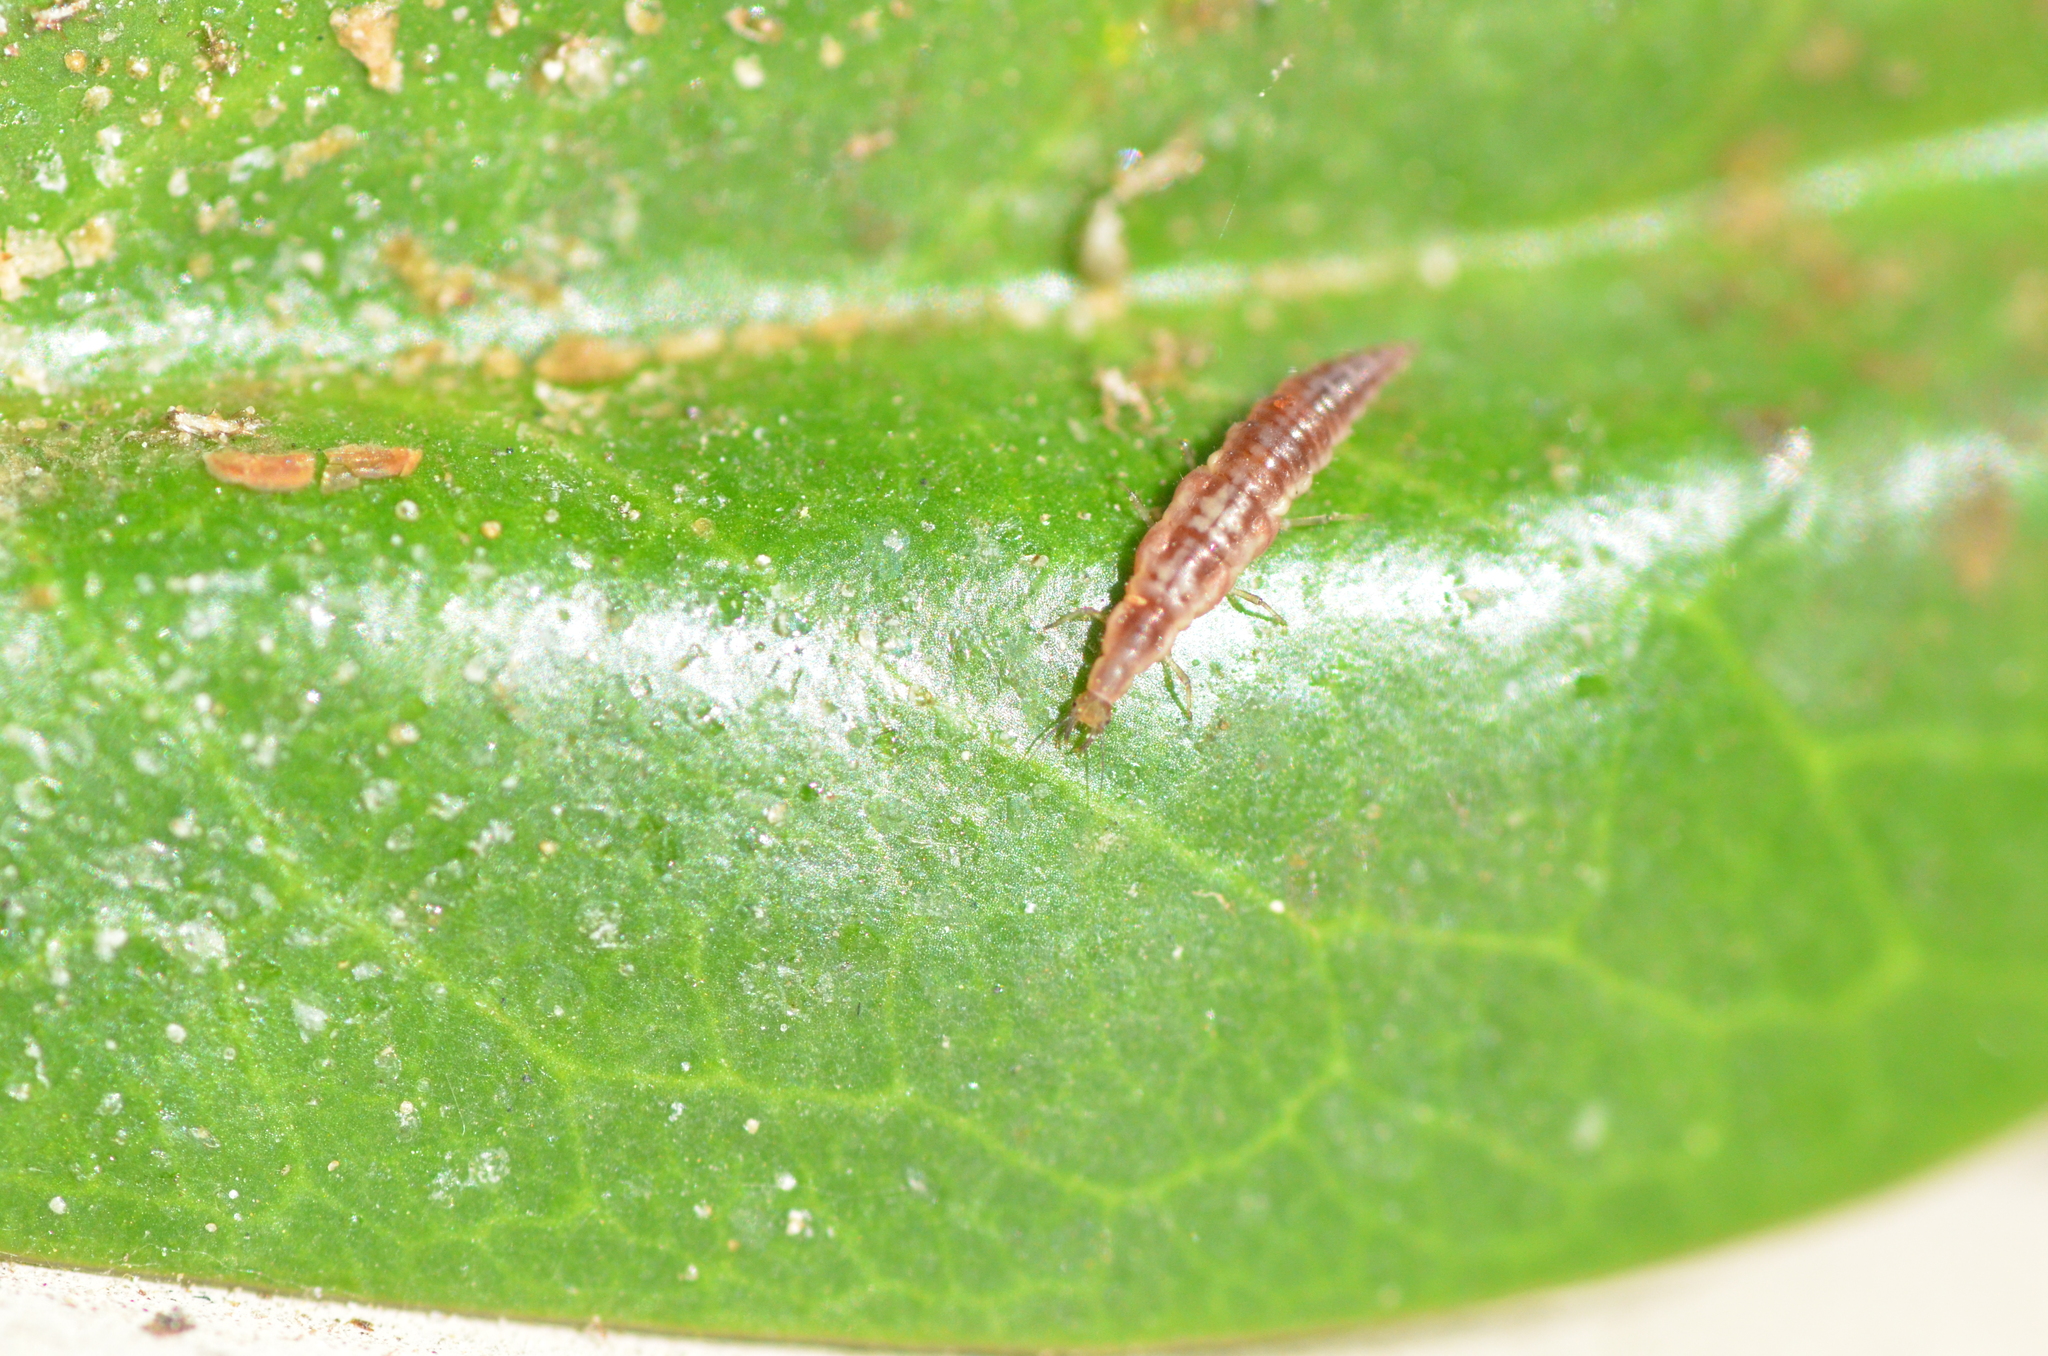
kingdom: Animalia
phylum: Arthropoda
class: Insecta
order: Neuroptera
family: Hemerobiidae
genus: Micromus
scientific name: Micromus tasmaniae
